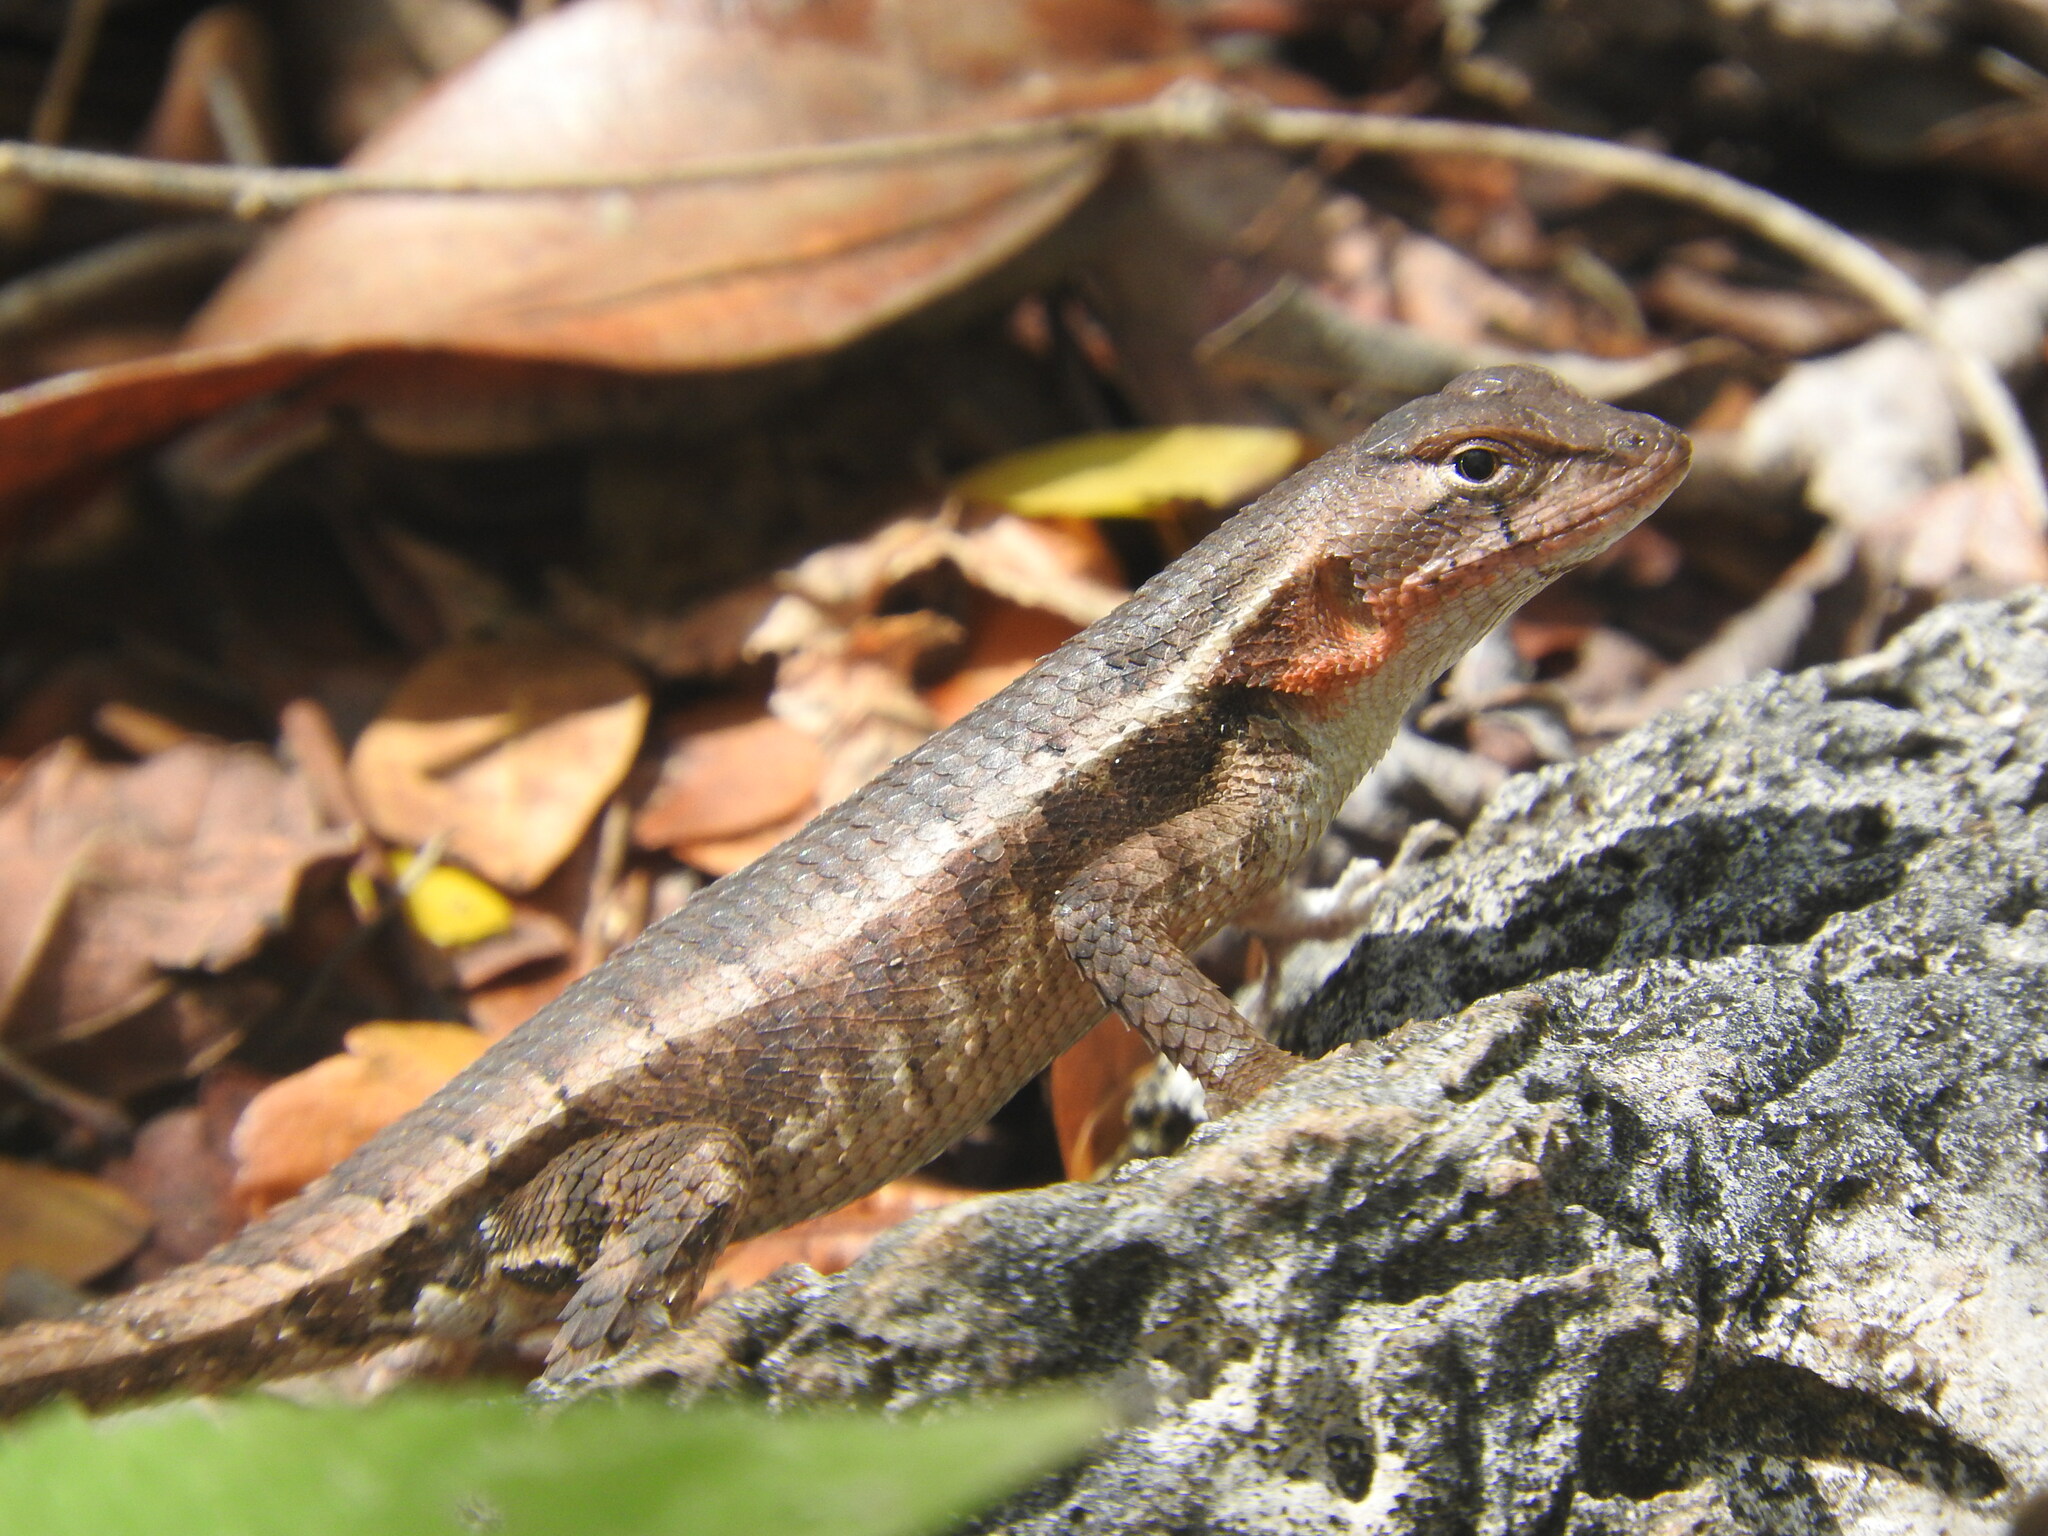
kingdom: Animalia
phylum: Chordata
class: Squamata
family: Phrynosomatidae
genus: Sceloporus
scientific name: Sceloporus chrysostictus
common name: Yellow-spotted spiny lizard
